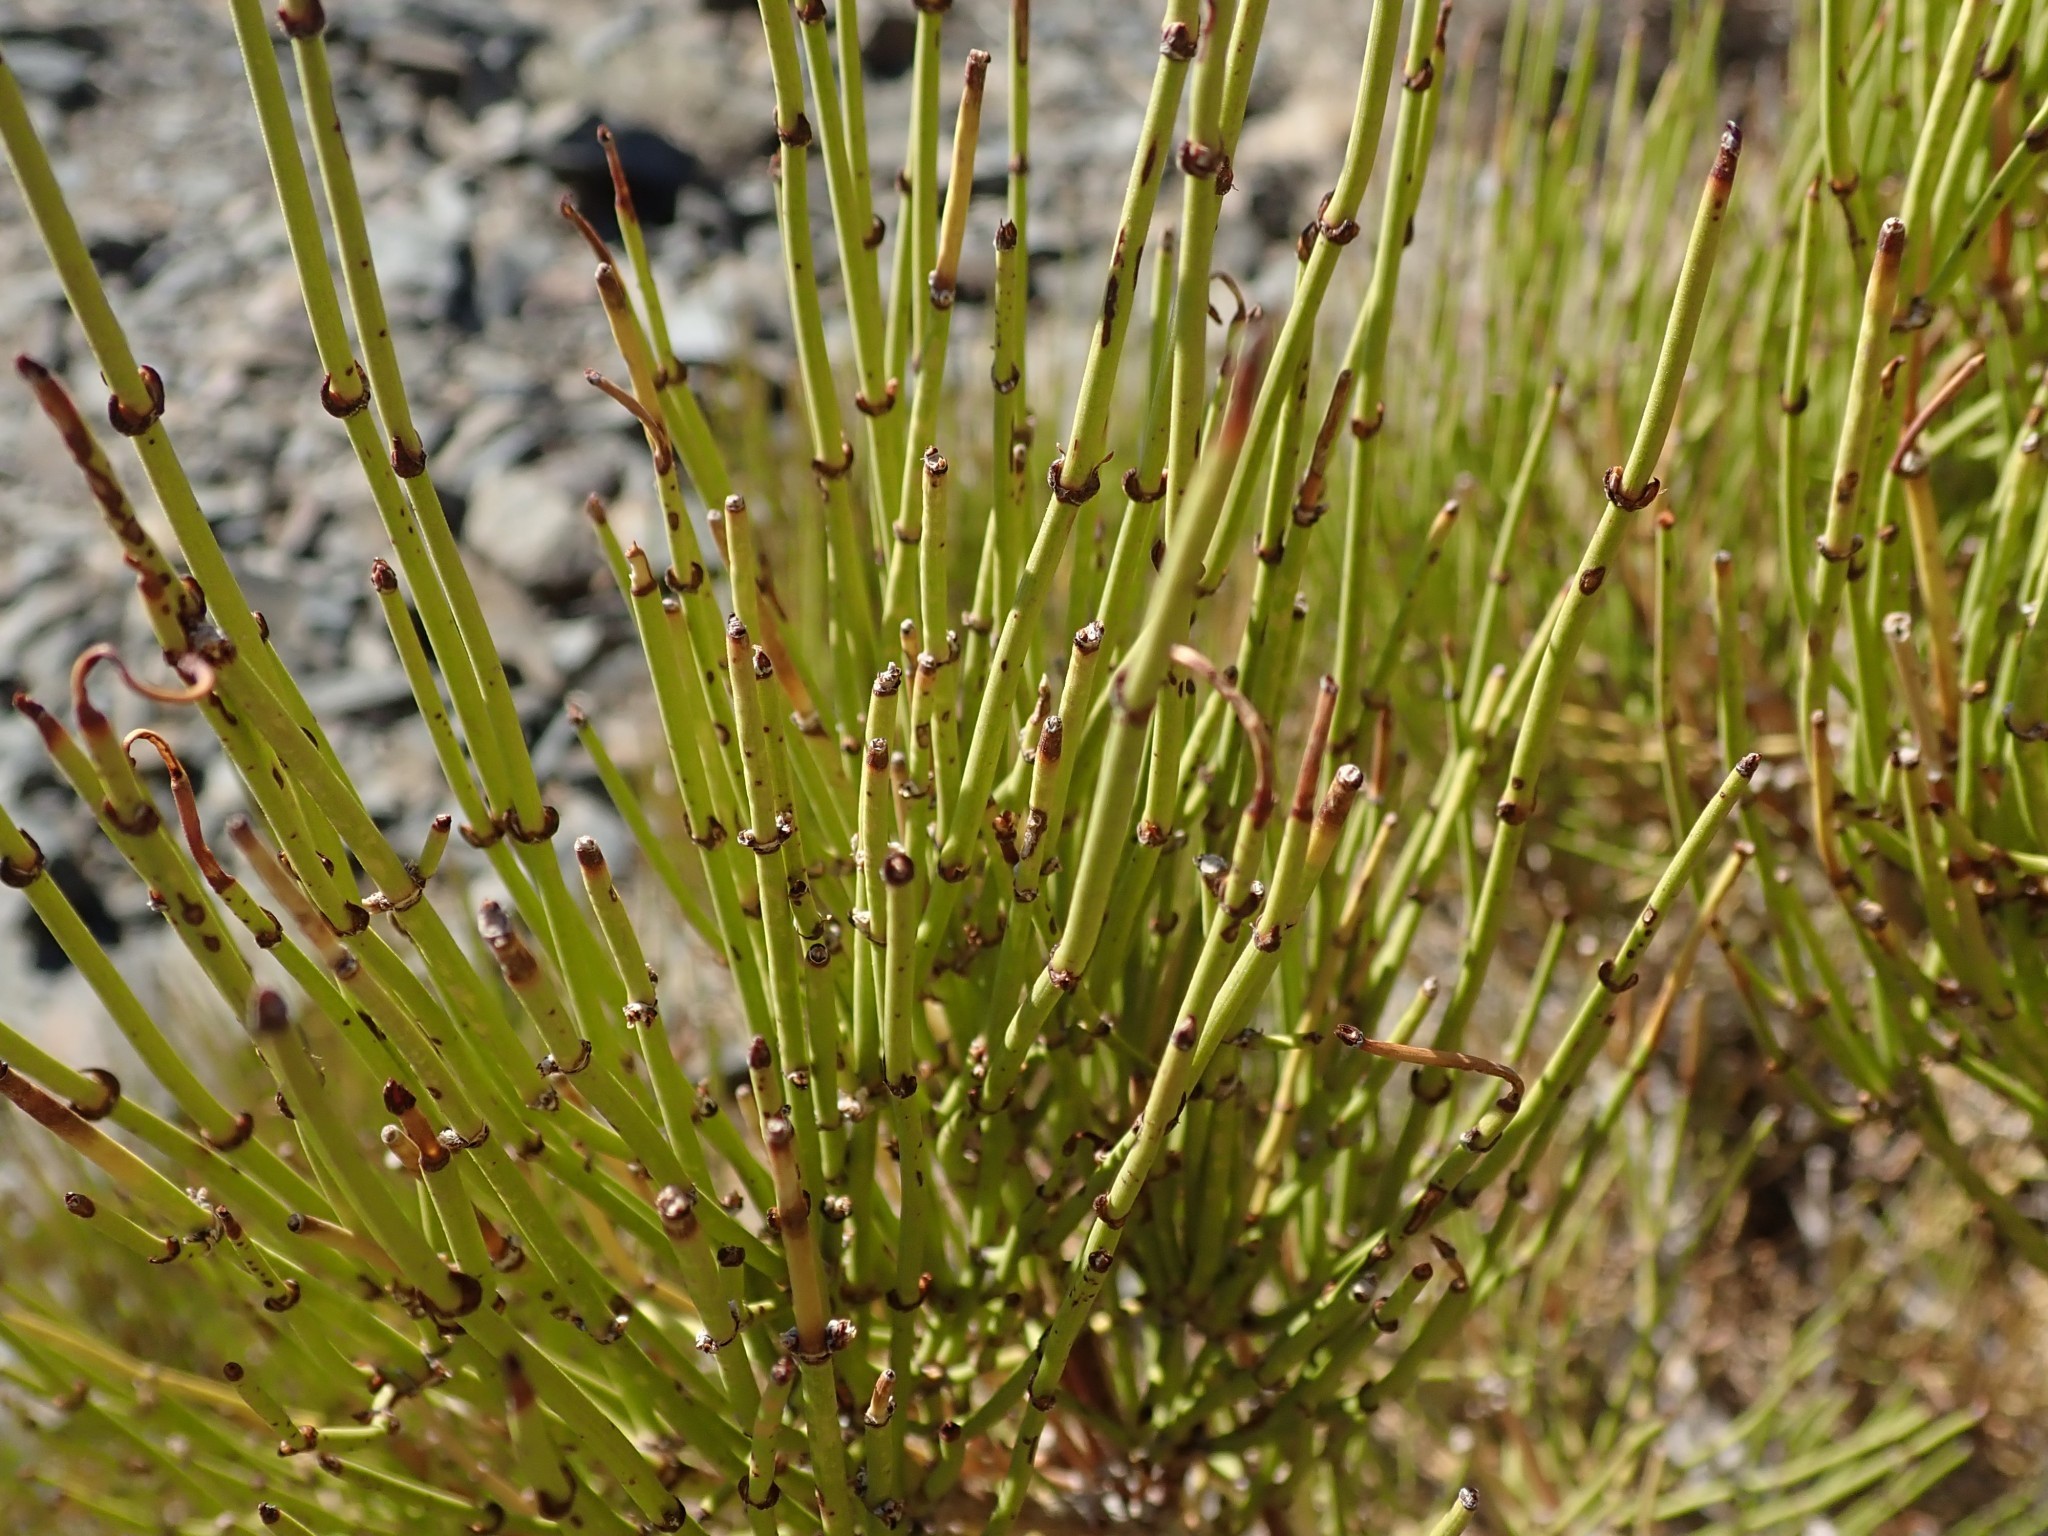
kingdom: Plantae
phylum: Tracheophyta
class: Gnetopsida
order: Ephedrales
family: Ephedraceae
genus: Ephedra
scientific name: Ephedra viridis
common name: Green ephedra
